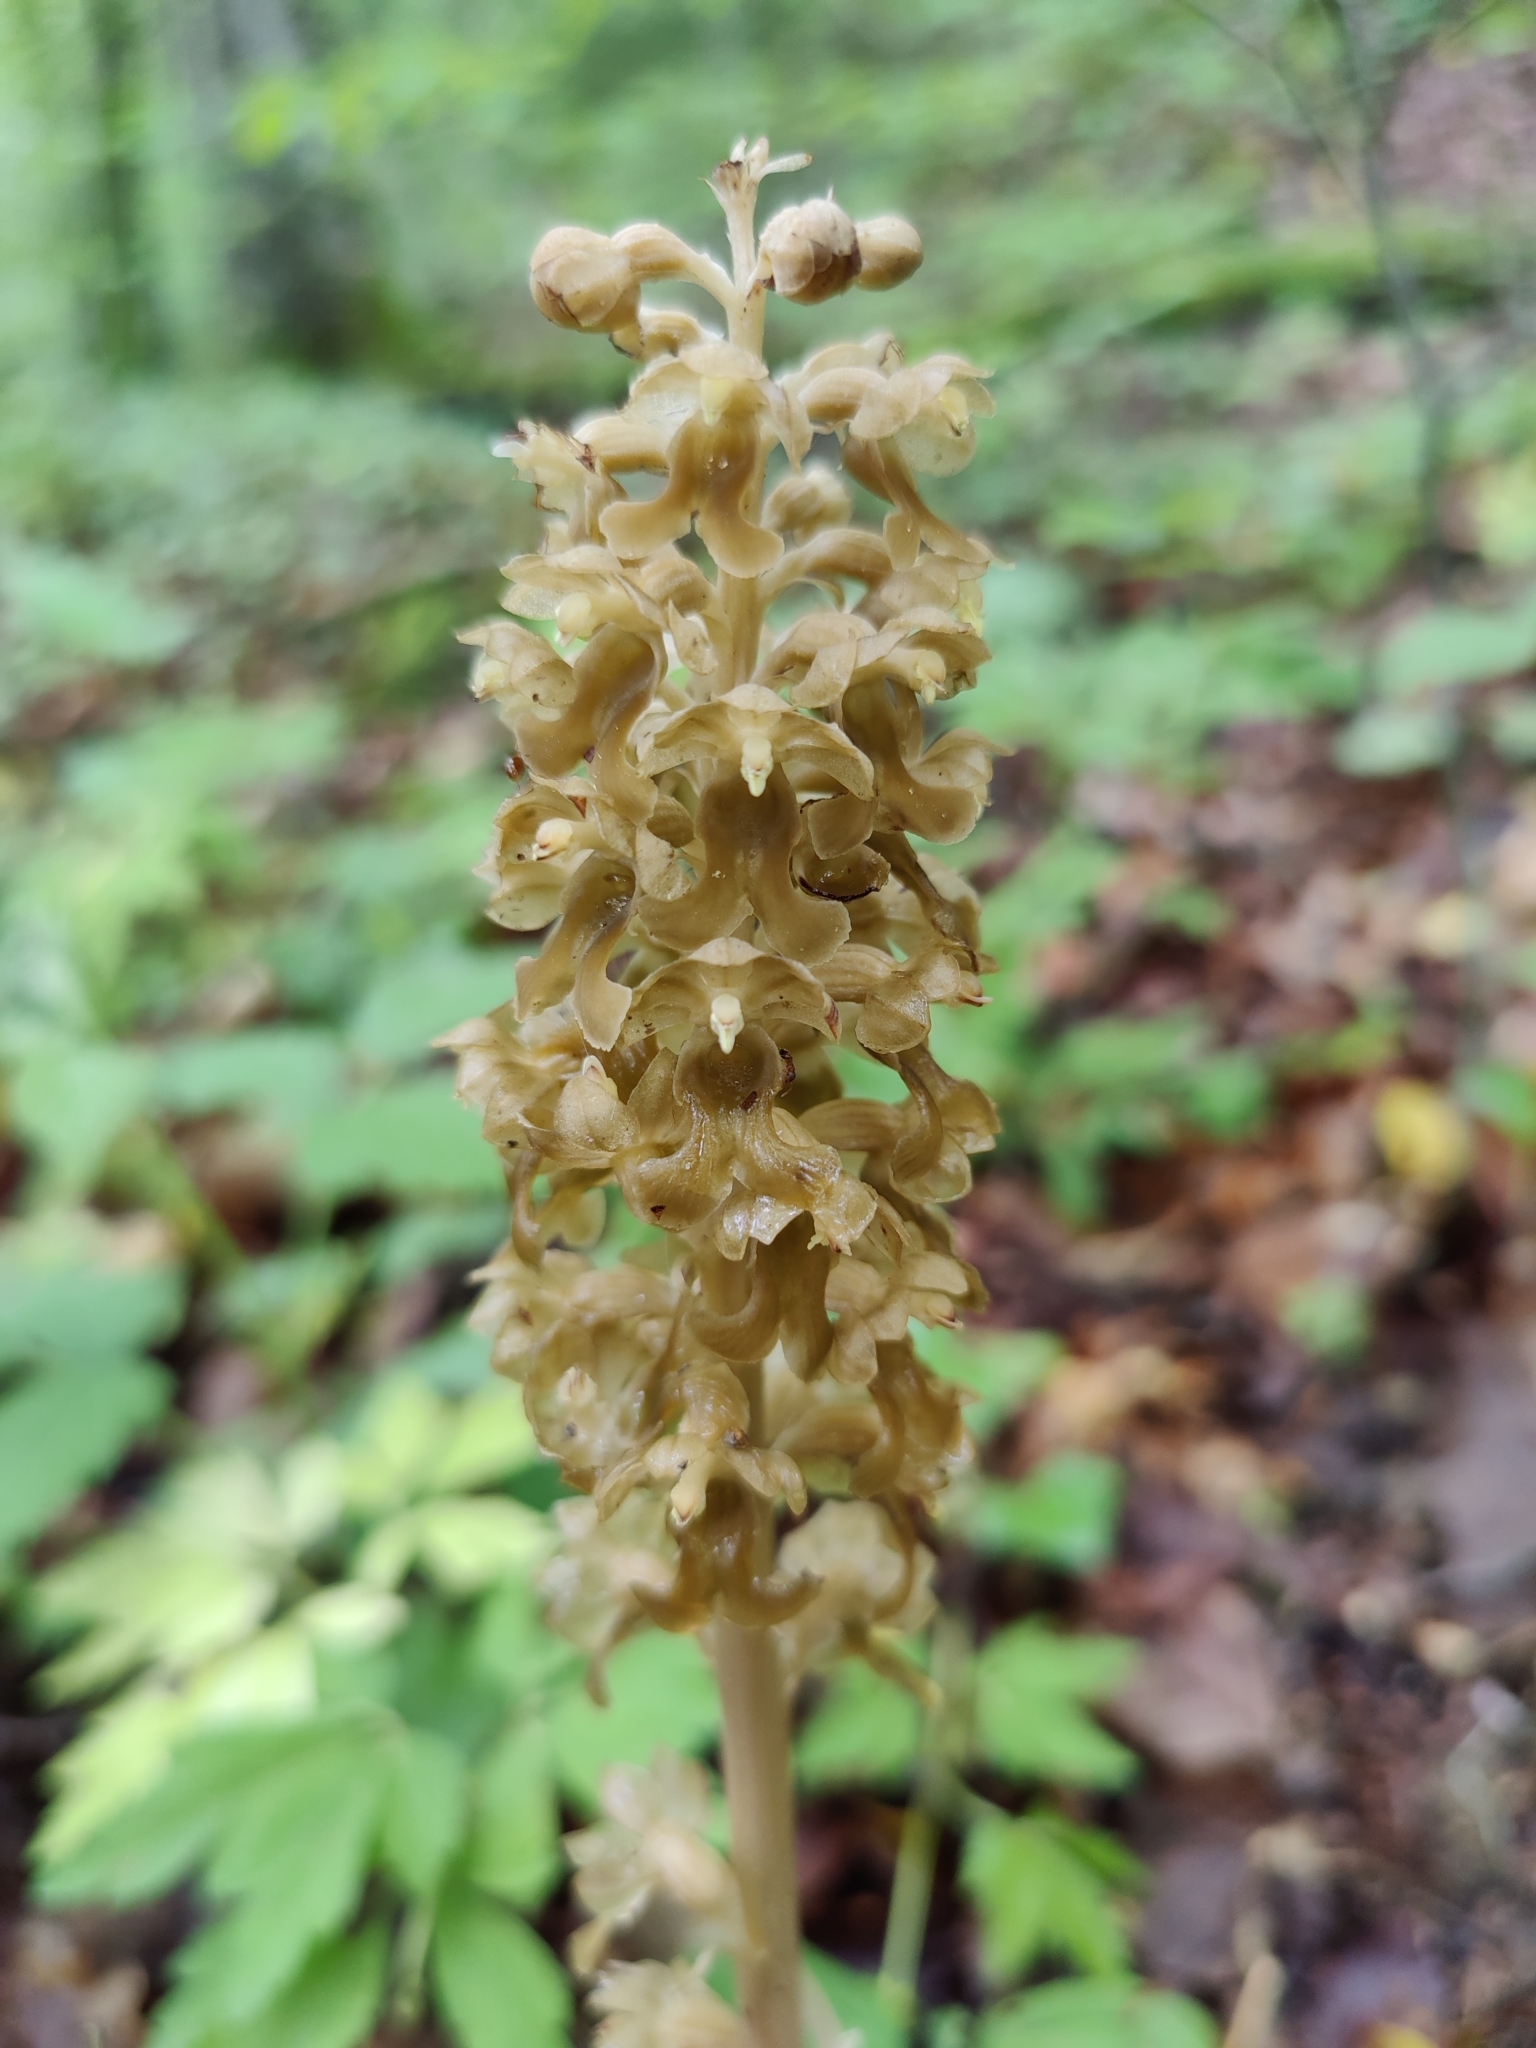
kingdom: Plantae
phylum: Tracheophyta
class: Liliopsida
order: Asparagales
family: Orchidaceae
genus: Neottia
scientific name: Neottia nidus-avis
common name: Bird's-nest orchid
